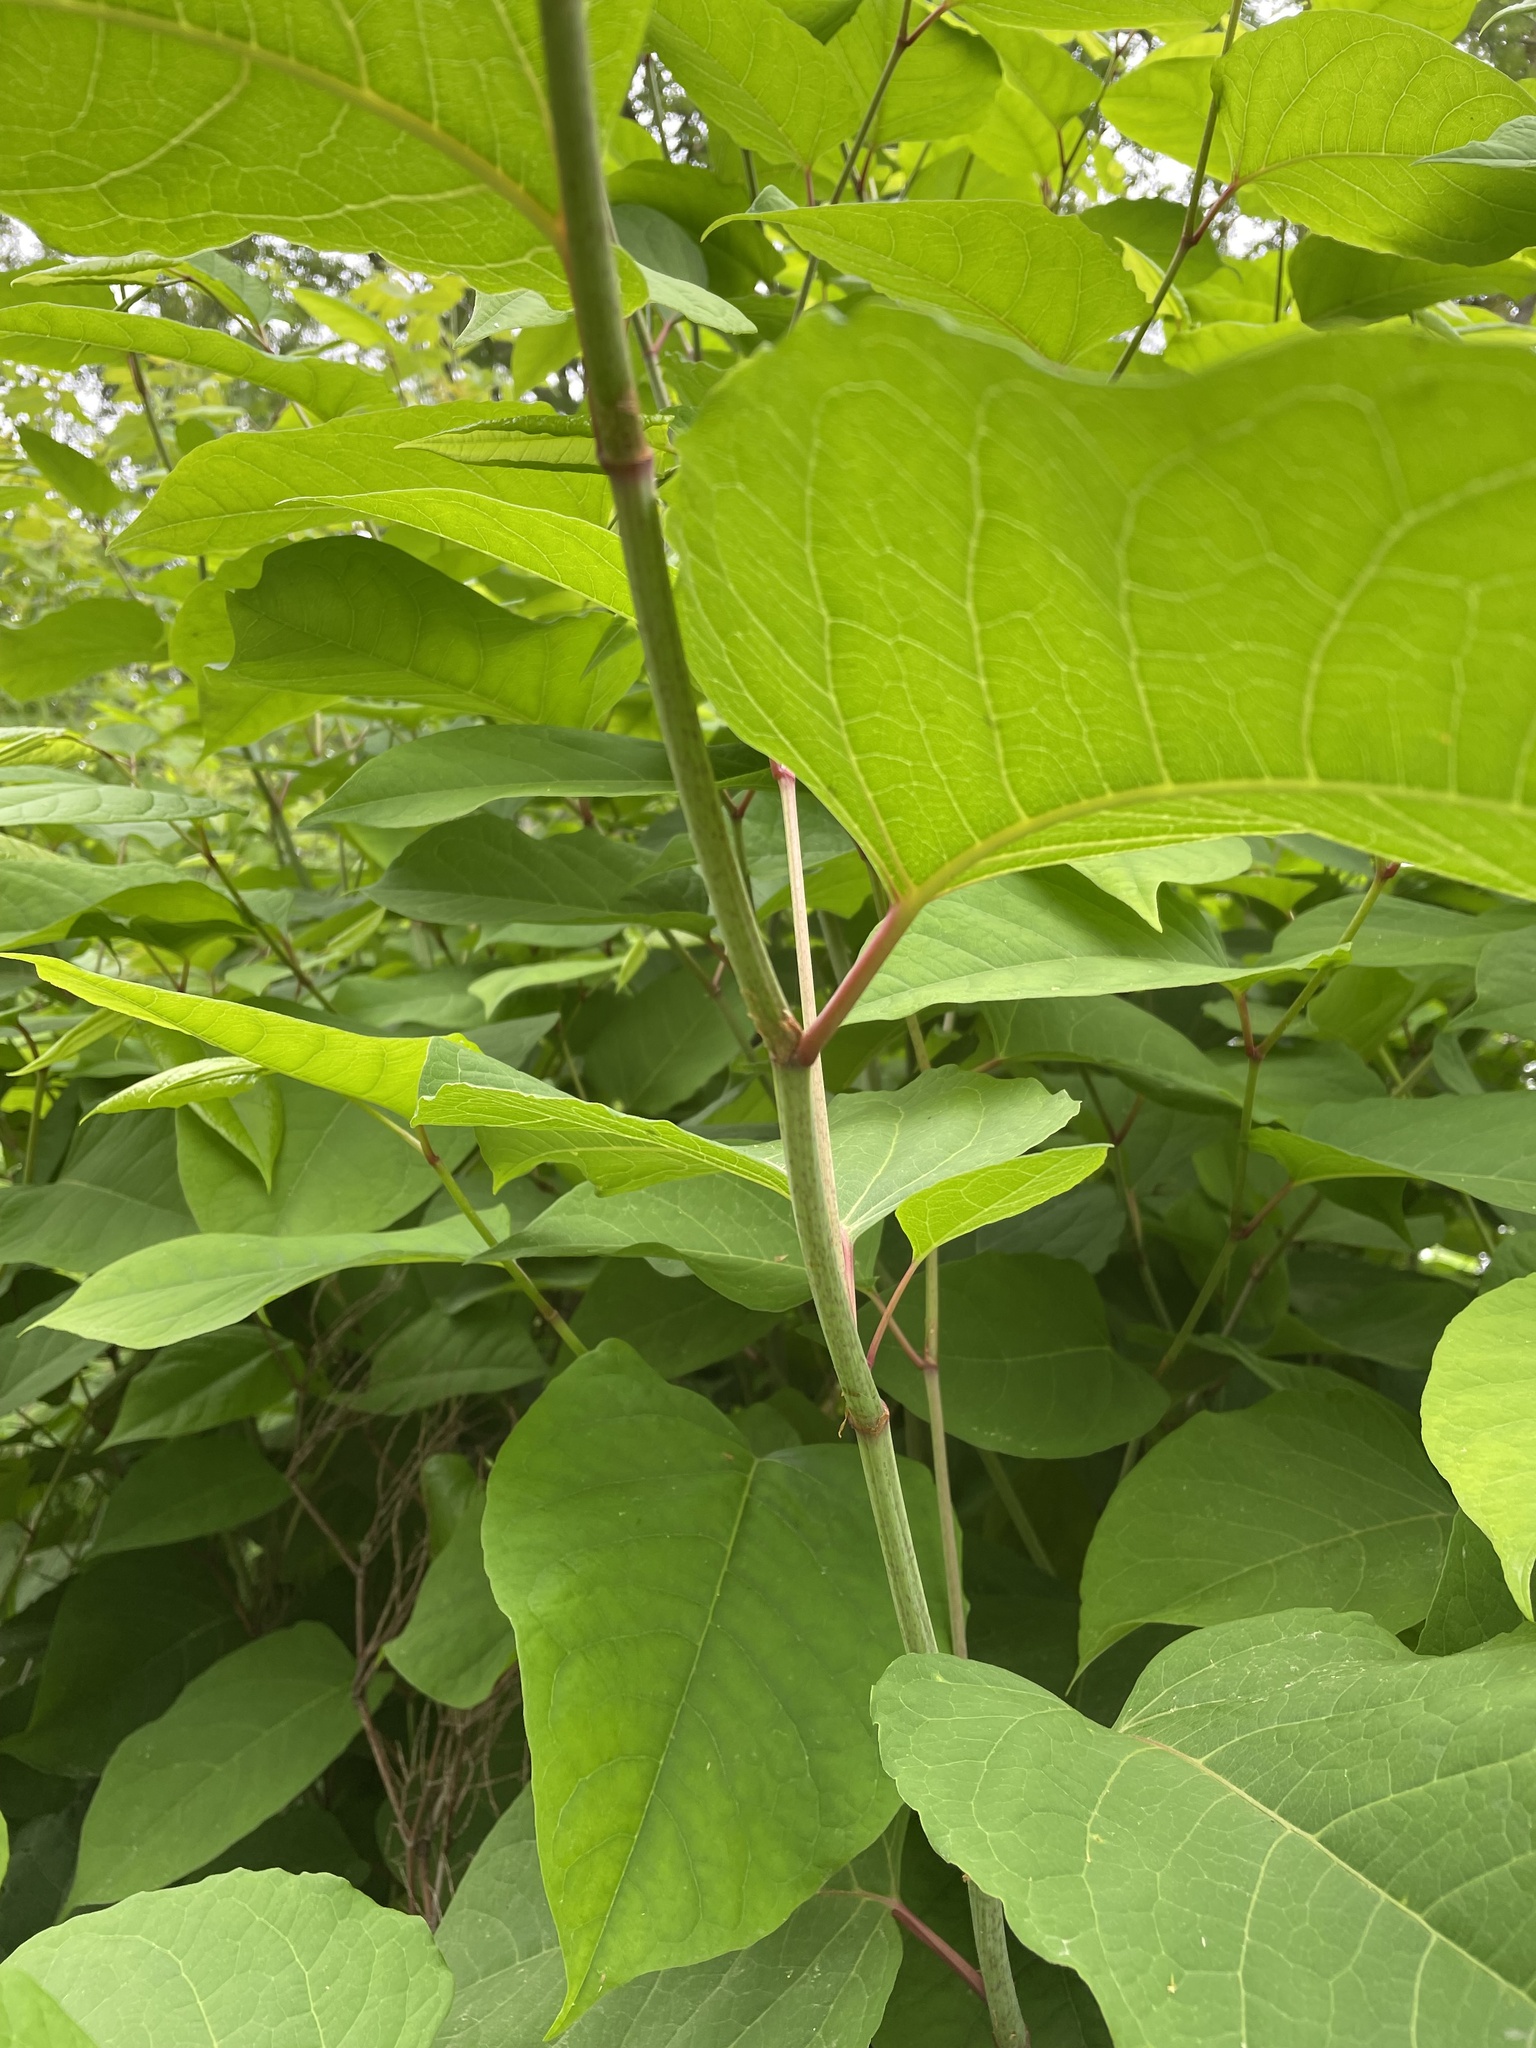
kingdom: Plantae
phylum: Tracheophyta
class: Magnoliopsida
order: Caryophyllales
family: Polygonaceae
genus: Reynoutria
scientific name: Reynoutria japonica
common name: Japanese knotweed
